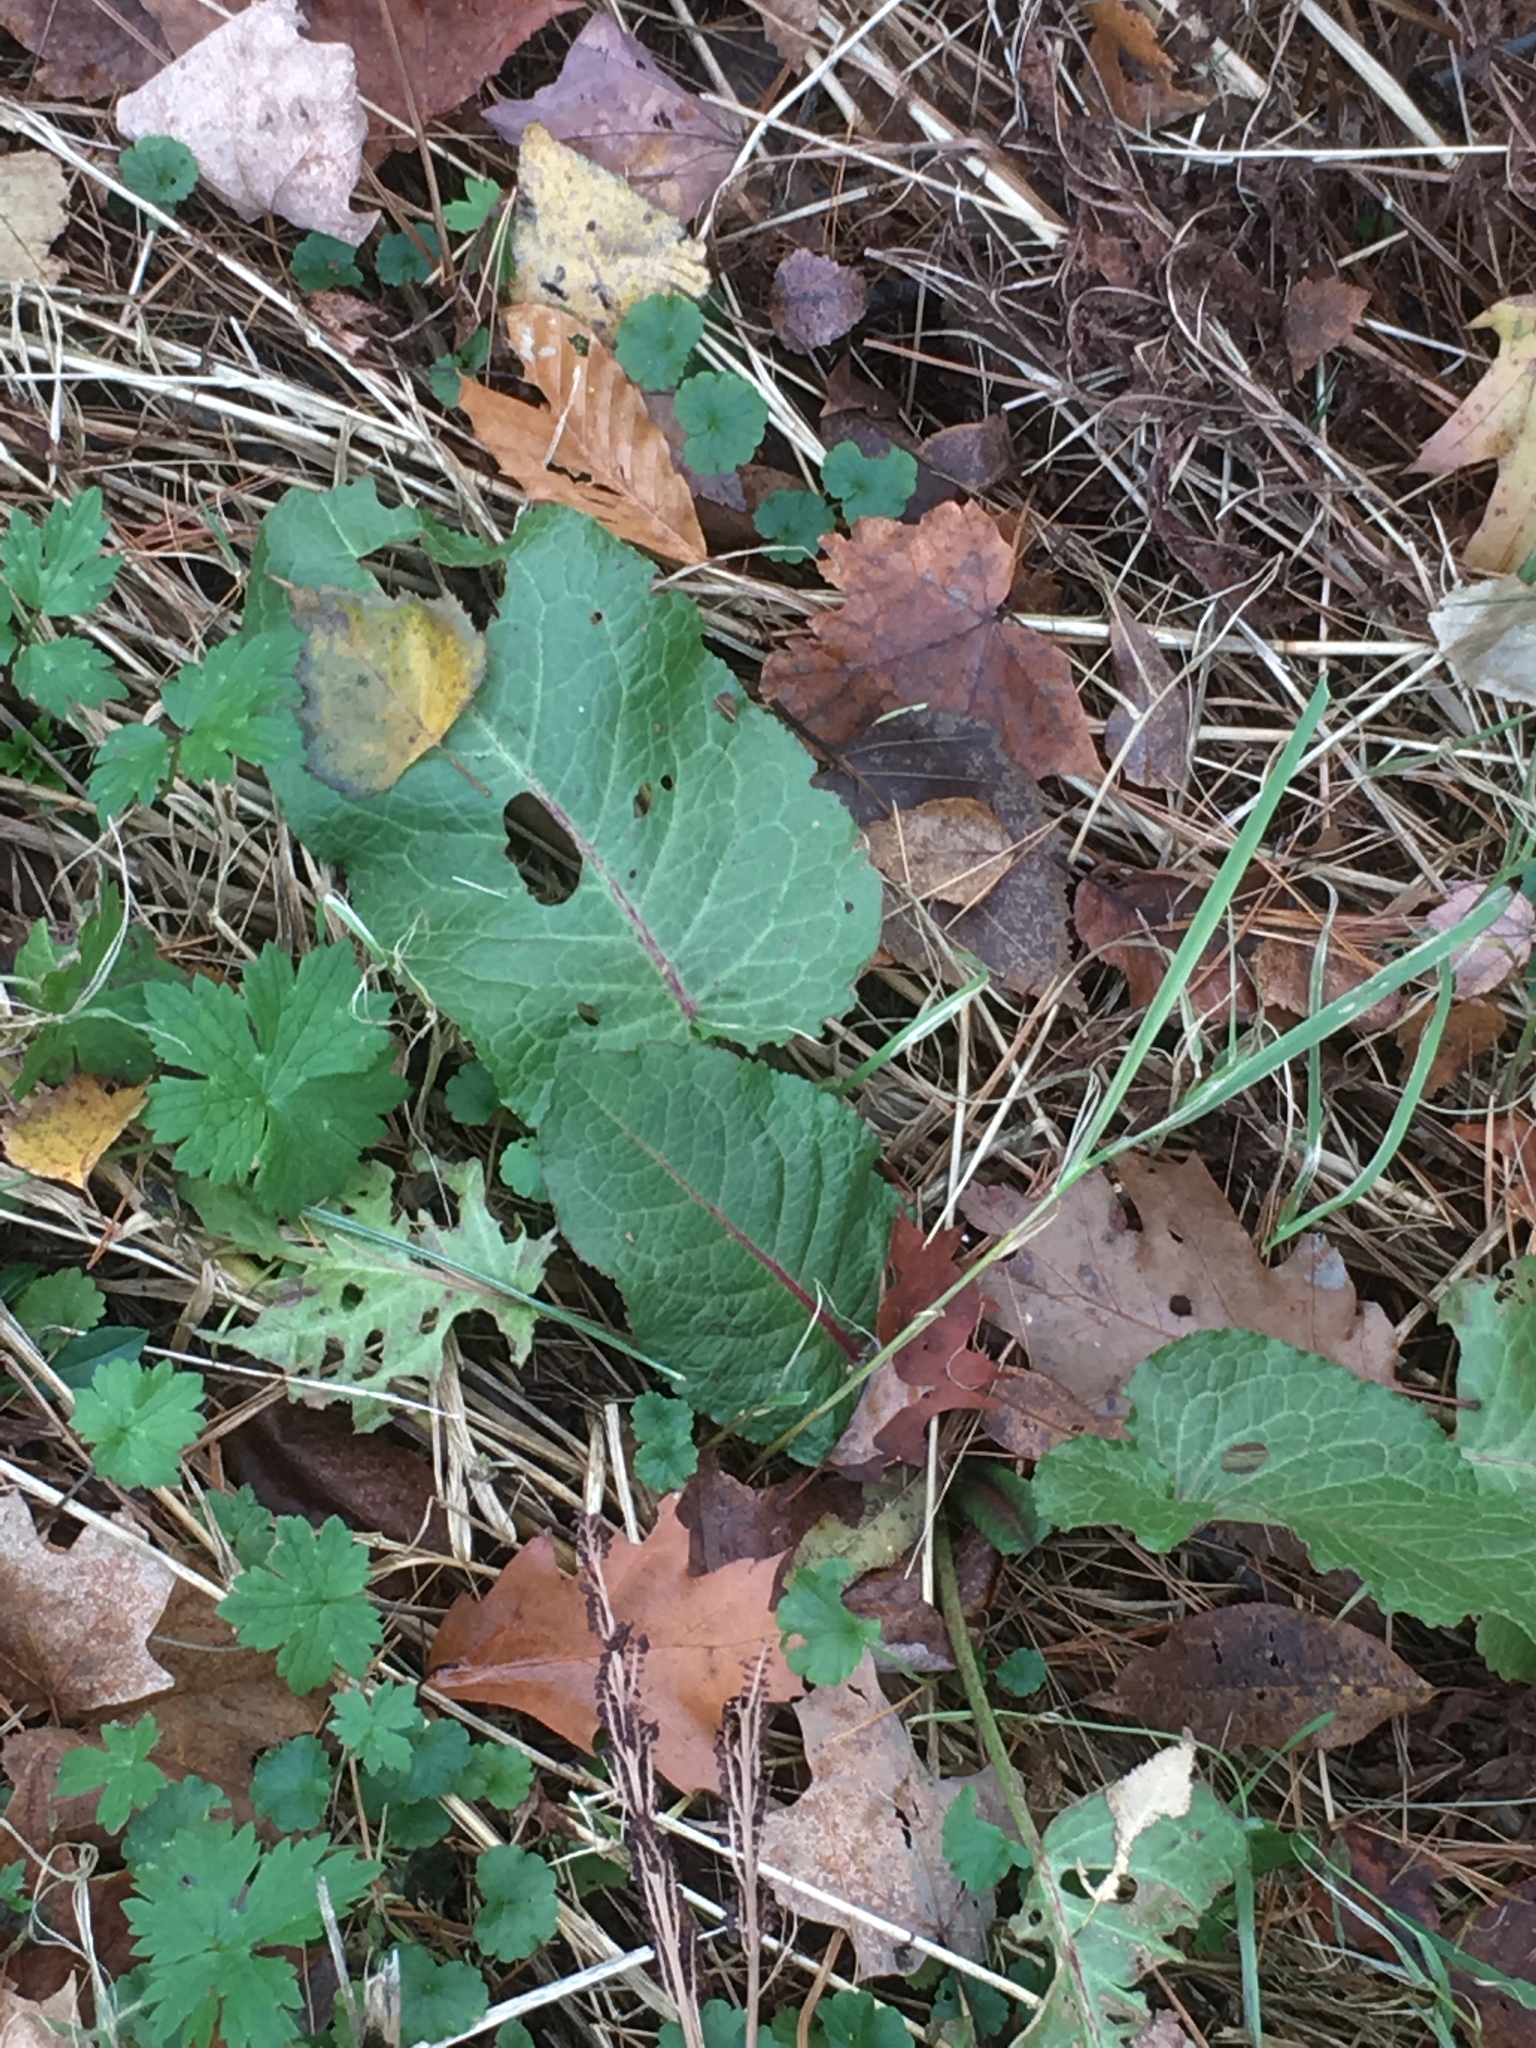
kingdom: Plantae
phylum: Tracheophyta
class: Magnoliopsida
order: Caryophyllales
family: Polygonaceae
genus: Rumex
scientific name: Rumex obtusifolius
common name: Bitter dock
